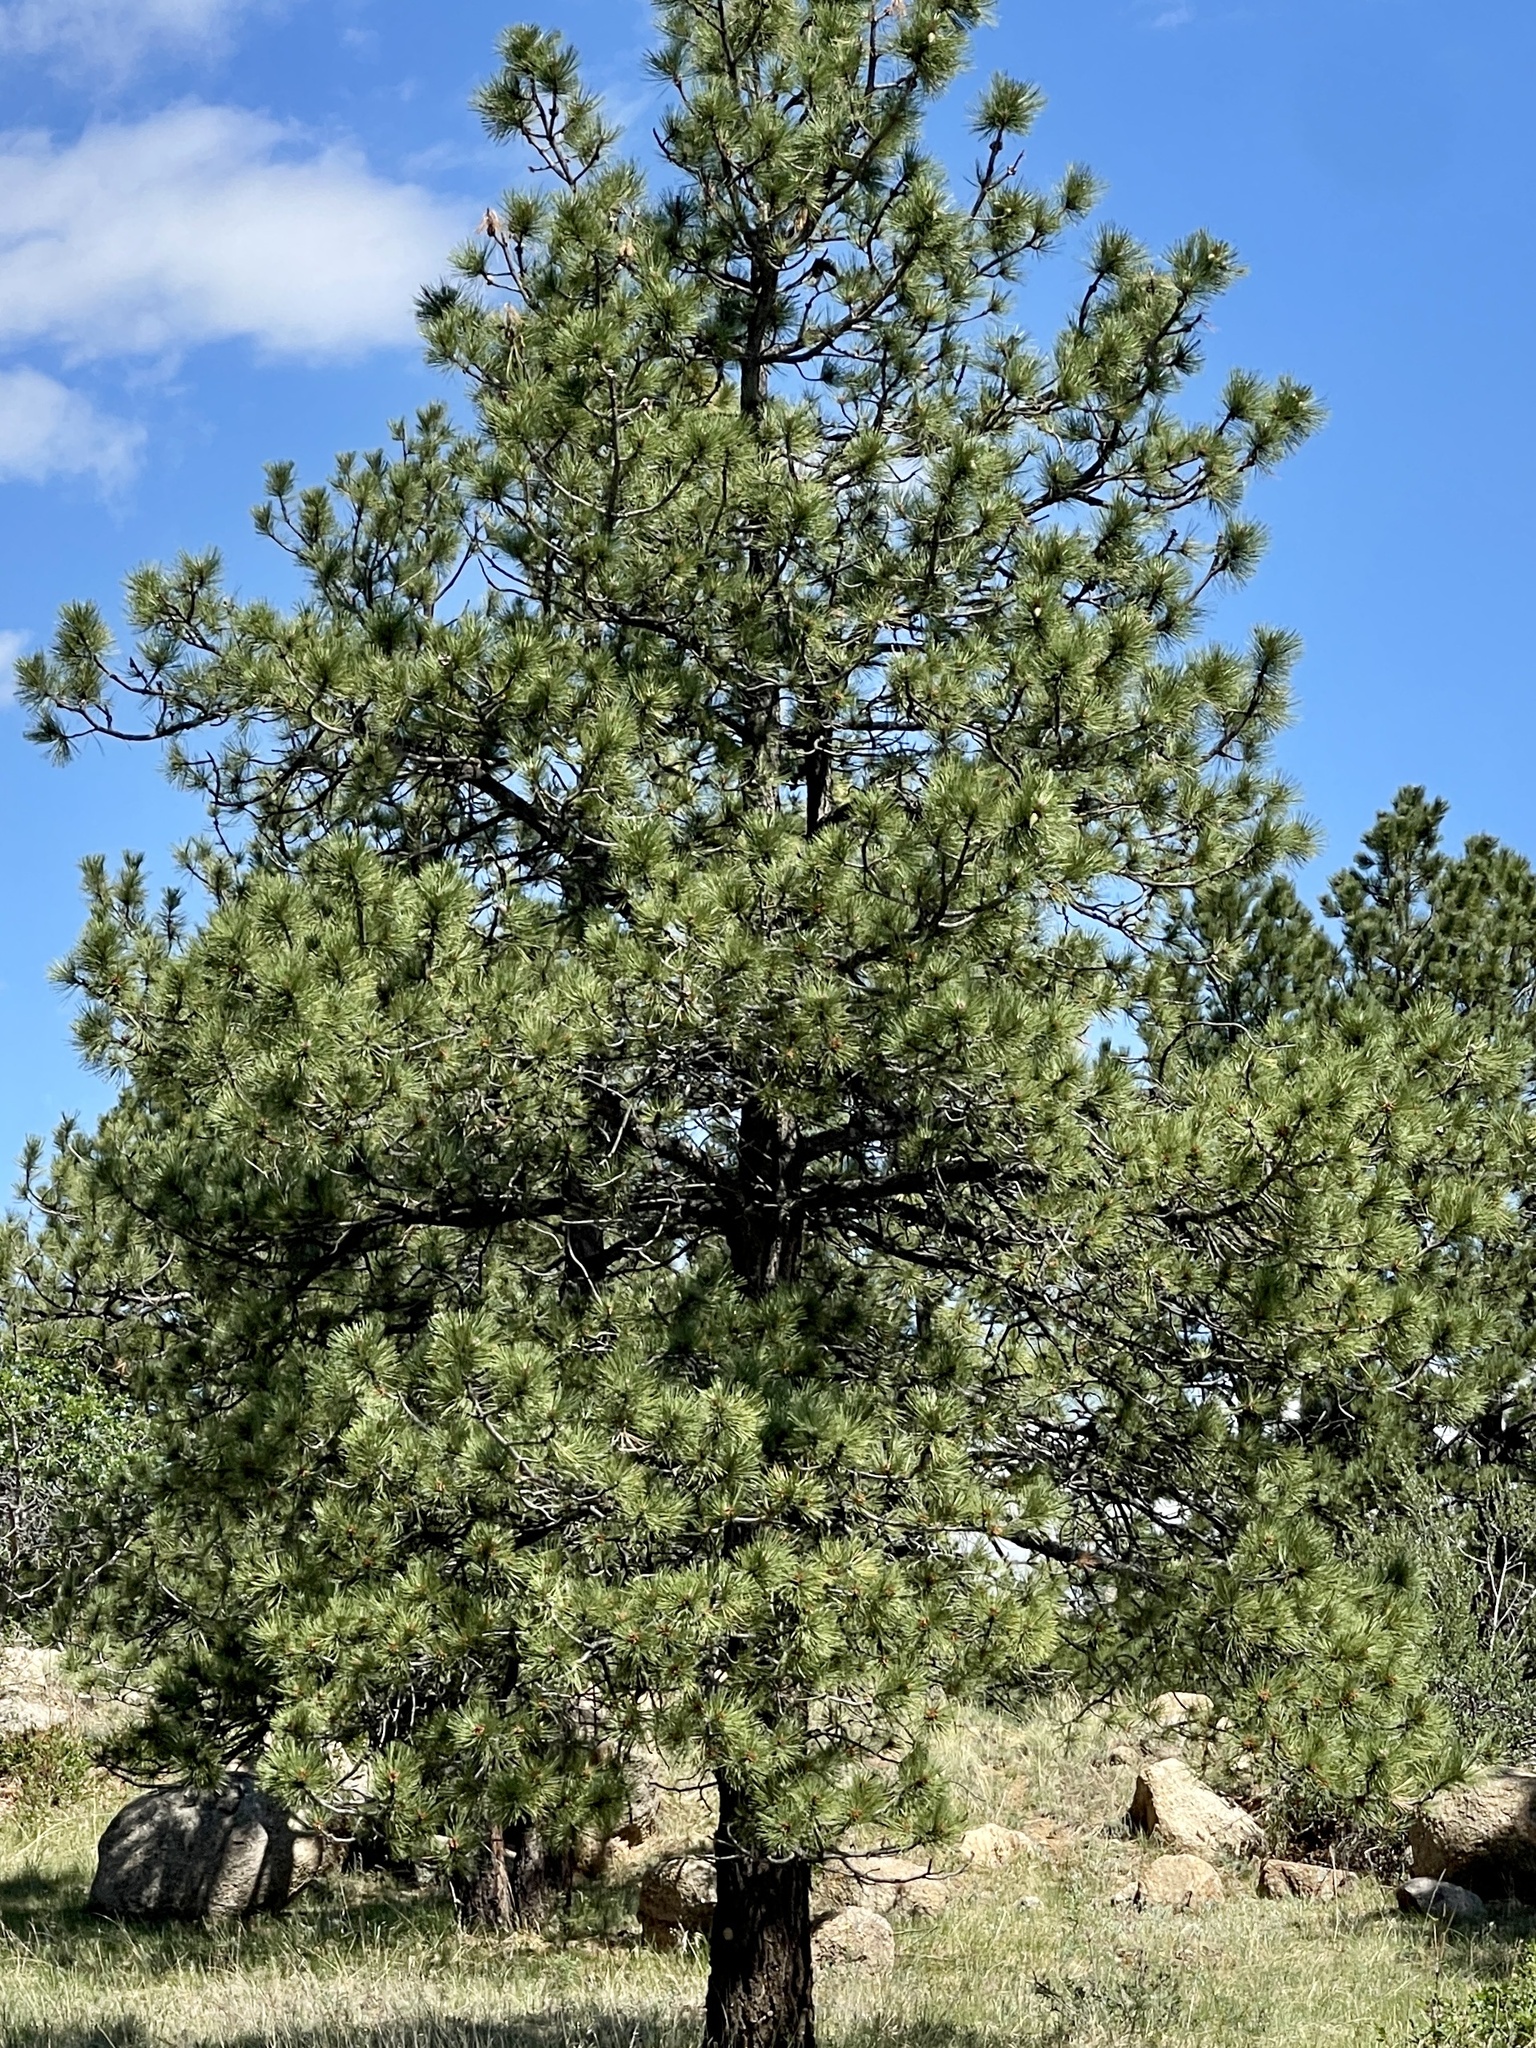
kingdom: Plantae
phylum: Tracheophyta
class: Pinopsida
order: Pinales
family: Pinaceae
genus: Pinus
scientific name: Pinus ponderosa
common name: Western yellow-pine
